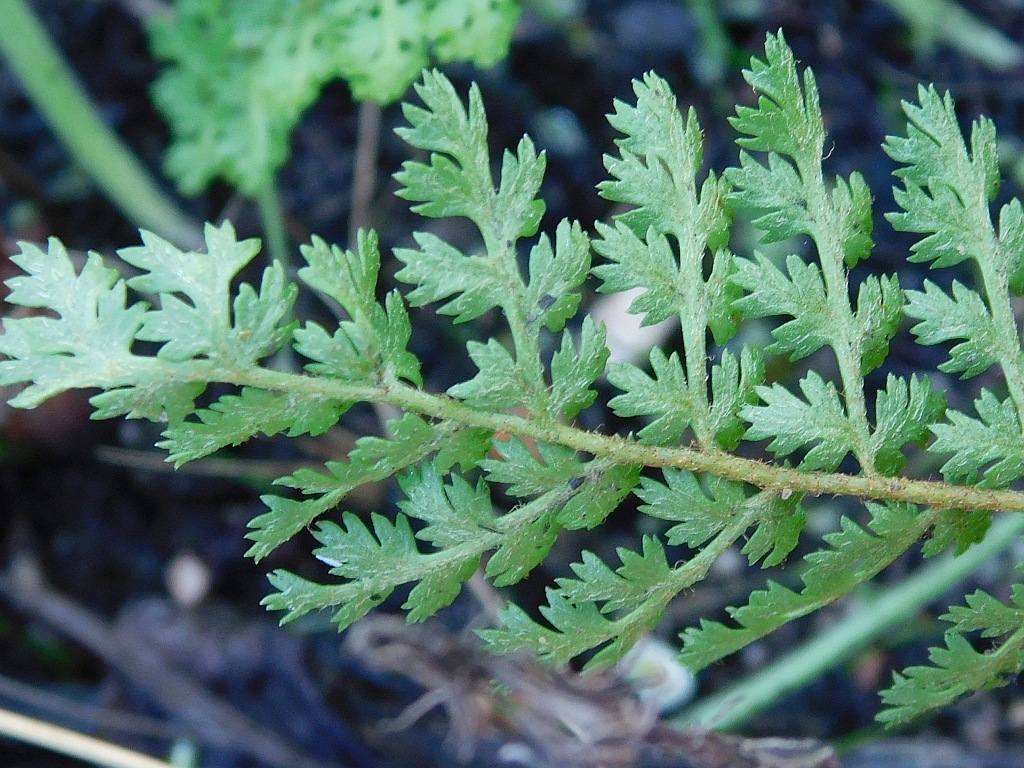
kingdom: Plantae
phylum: Tracheophyta
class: Polypodiopsida
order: Schizaeales
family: Anemiaceae
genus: Anemia
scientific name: Anemia caffrorum
